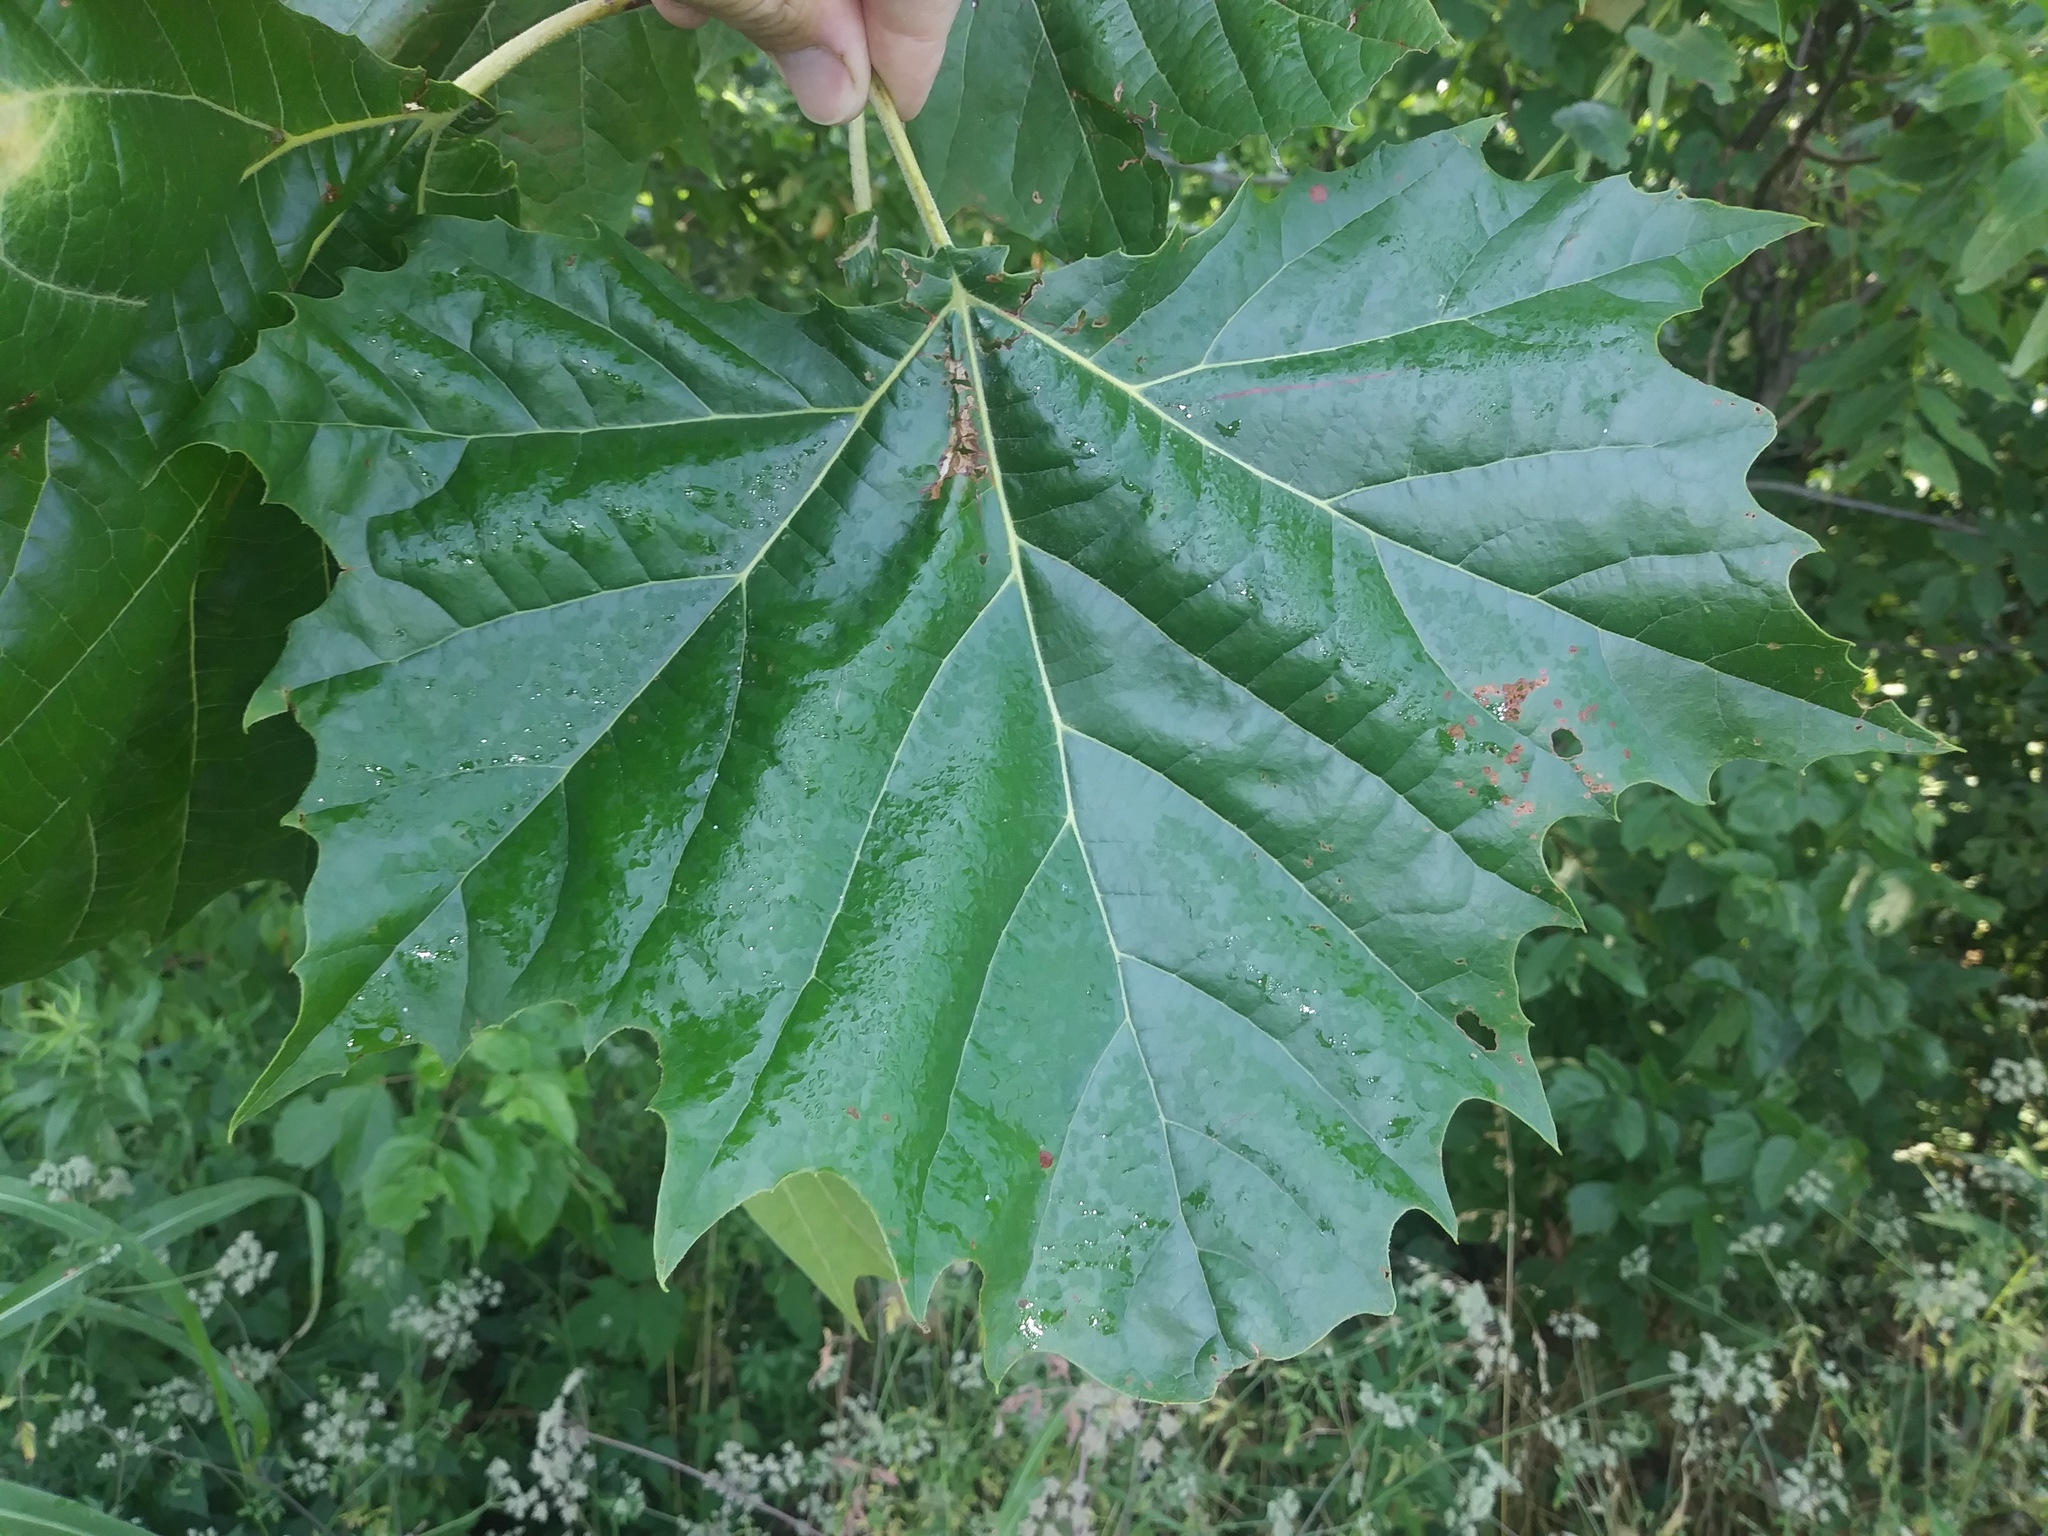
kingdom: Plantae
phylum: Tracheophyta
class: Magnoliopsida
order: Proteales
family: Platanaceae
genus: Platanus
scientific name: Platanus occidentalis
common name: American sycamore
